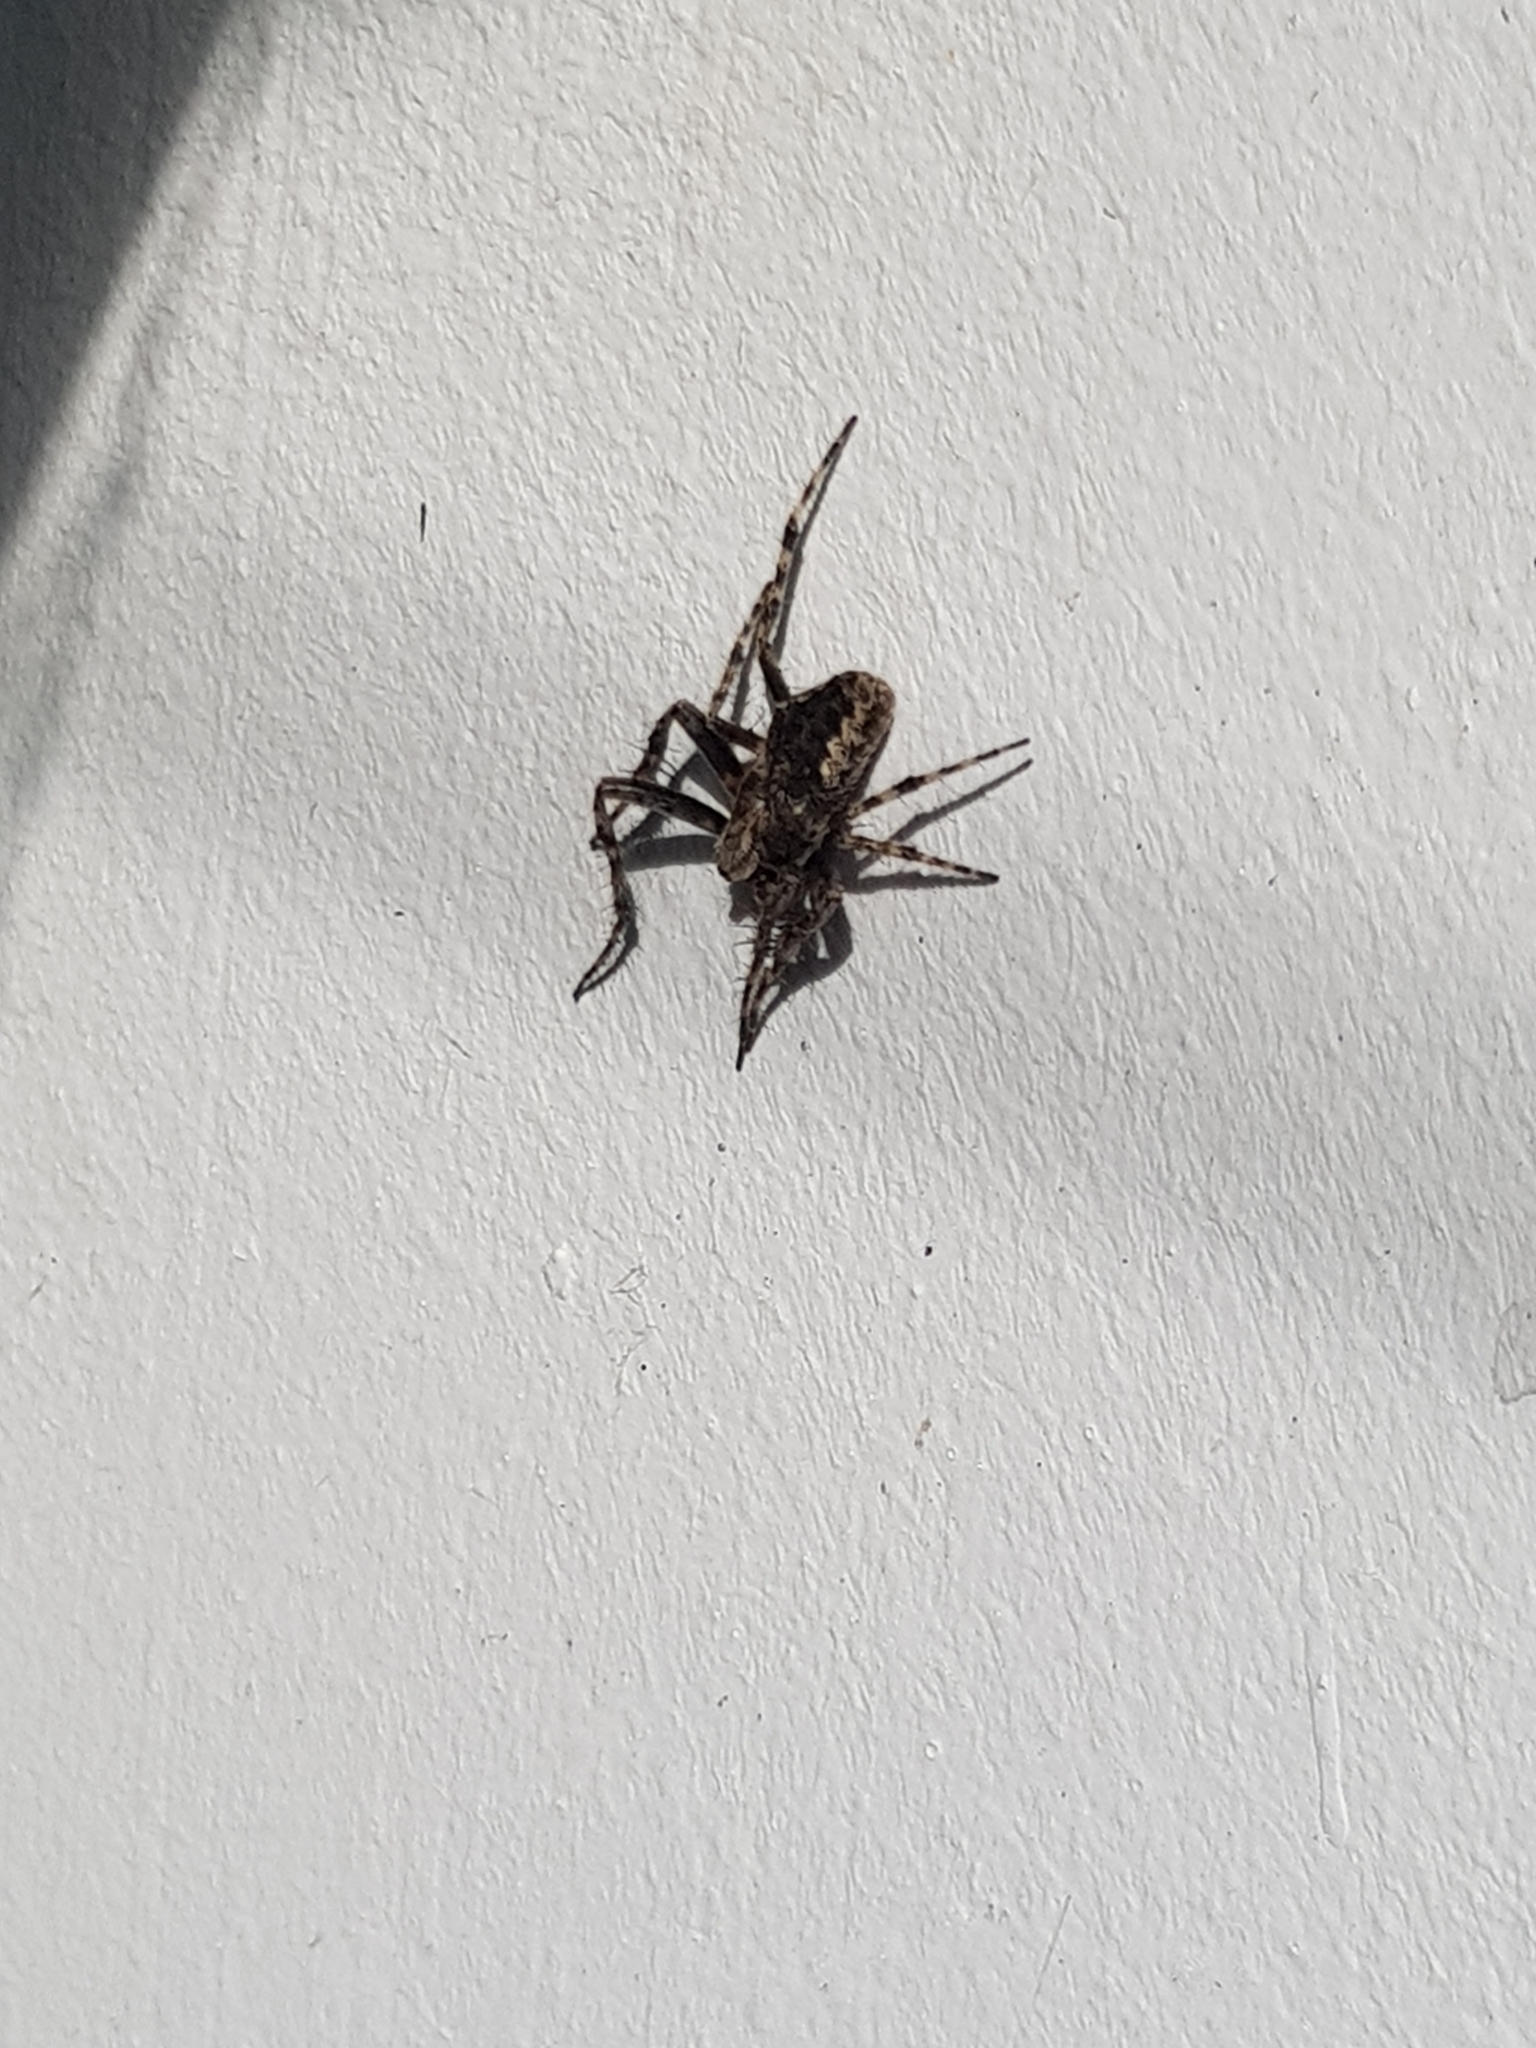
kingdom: Animalia
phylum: Arthropoda
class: Arachnida
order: Araneae
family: Araneidae
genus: Eriophora
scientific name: Eriophora pustulosa
